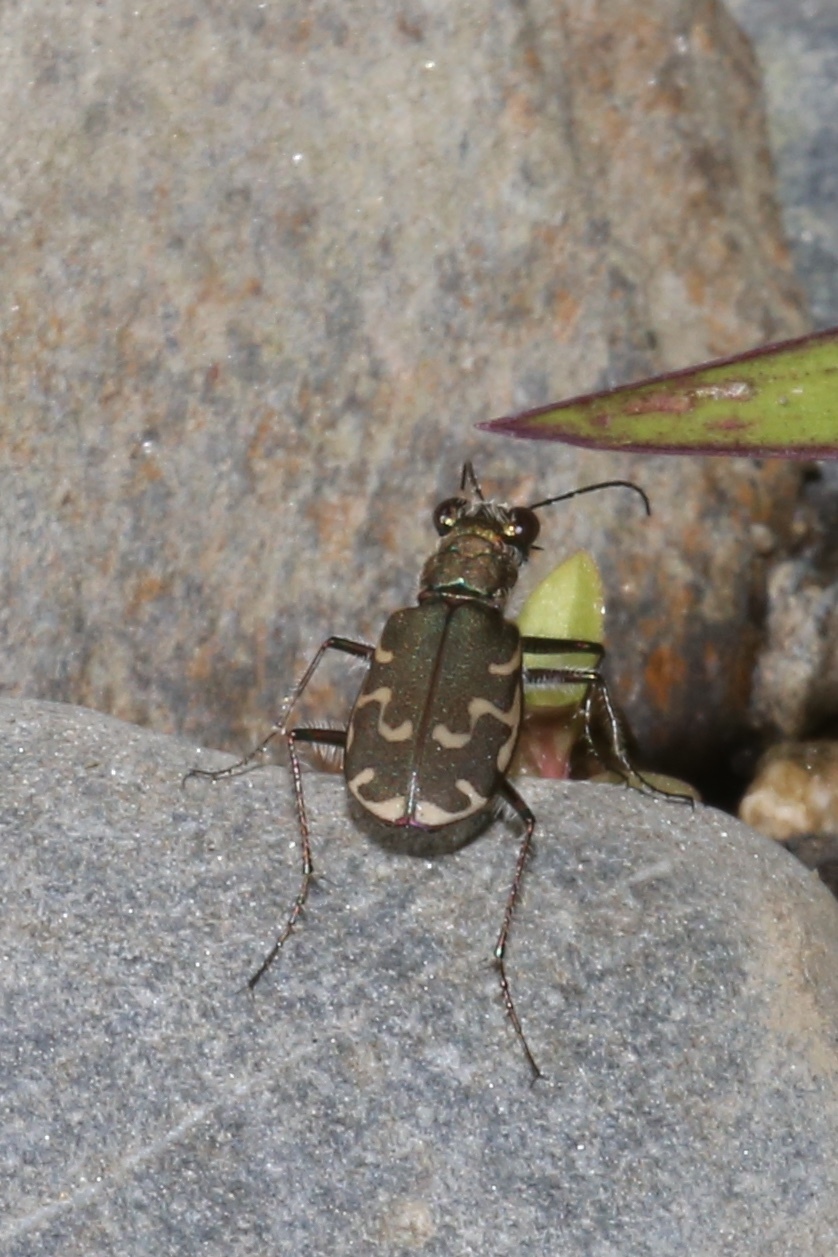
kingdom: Animalia
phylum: Arthropoda
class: Insecta
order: Coleoptera
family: Carabidae
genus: Cicindela
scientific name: Cicindela repanda
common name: Bronzed tiger beetle
